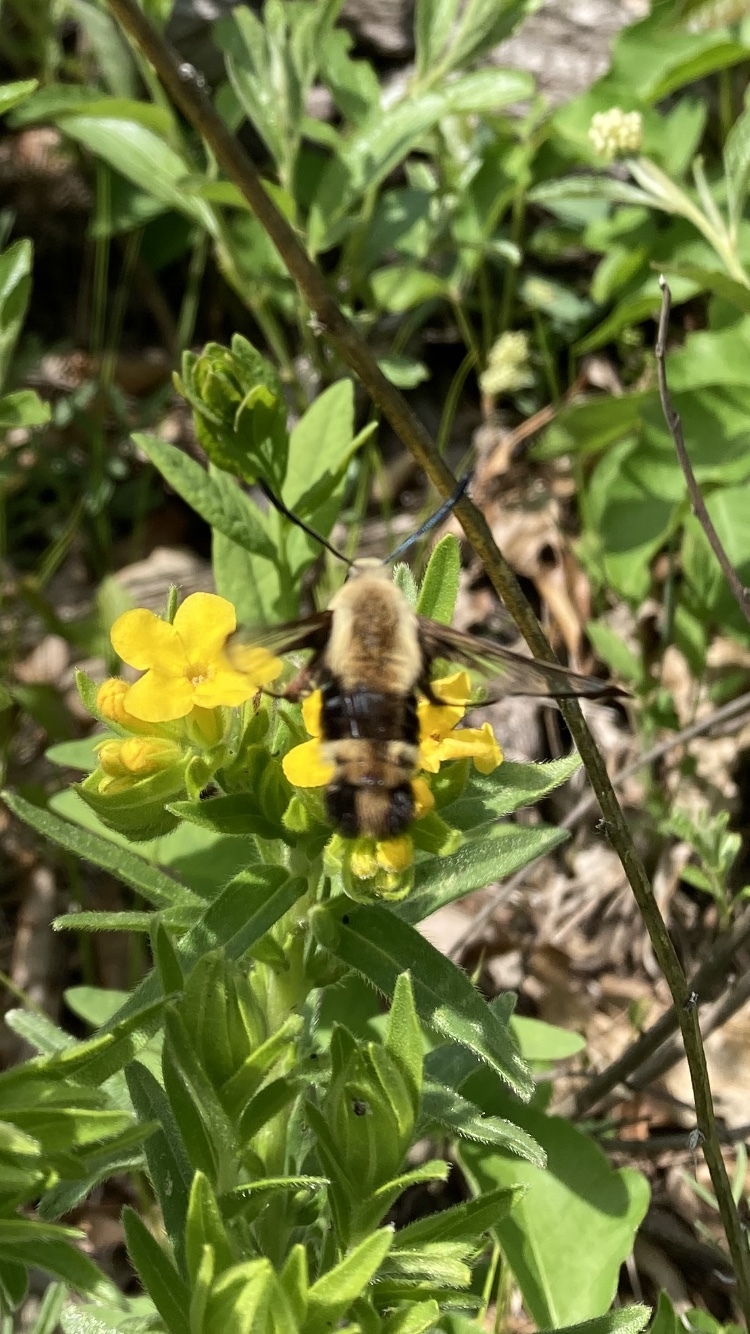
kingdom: Animalia
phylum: Arthropoda
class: Insecta
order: Lepidoptera
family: Sphingidae
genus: Hemaris
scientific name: Hemaris diffinis
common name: Bumblebee moth
